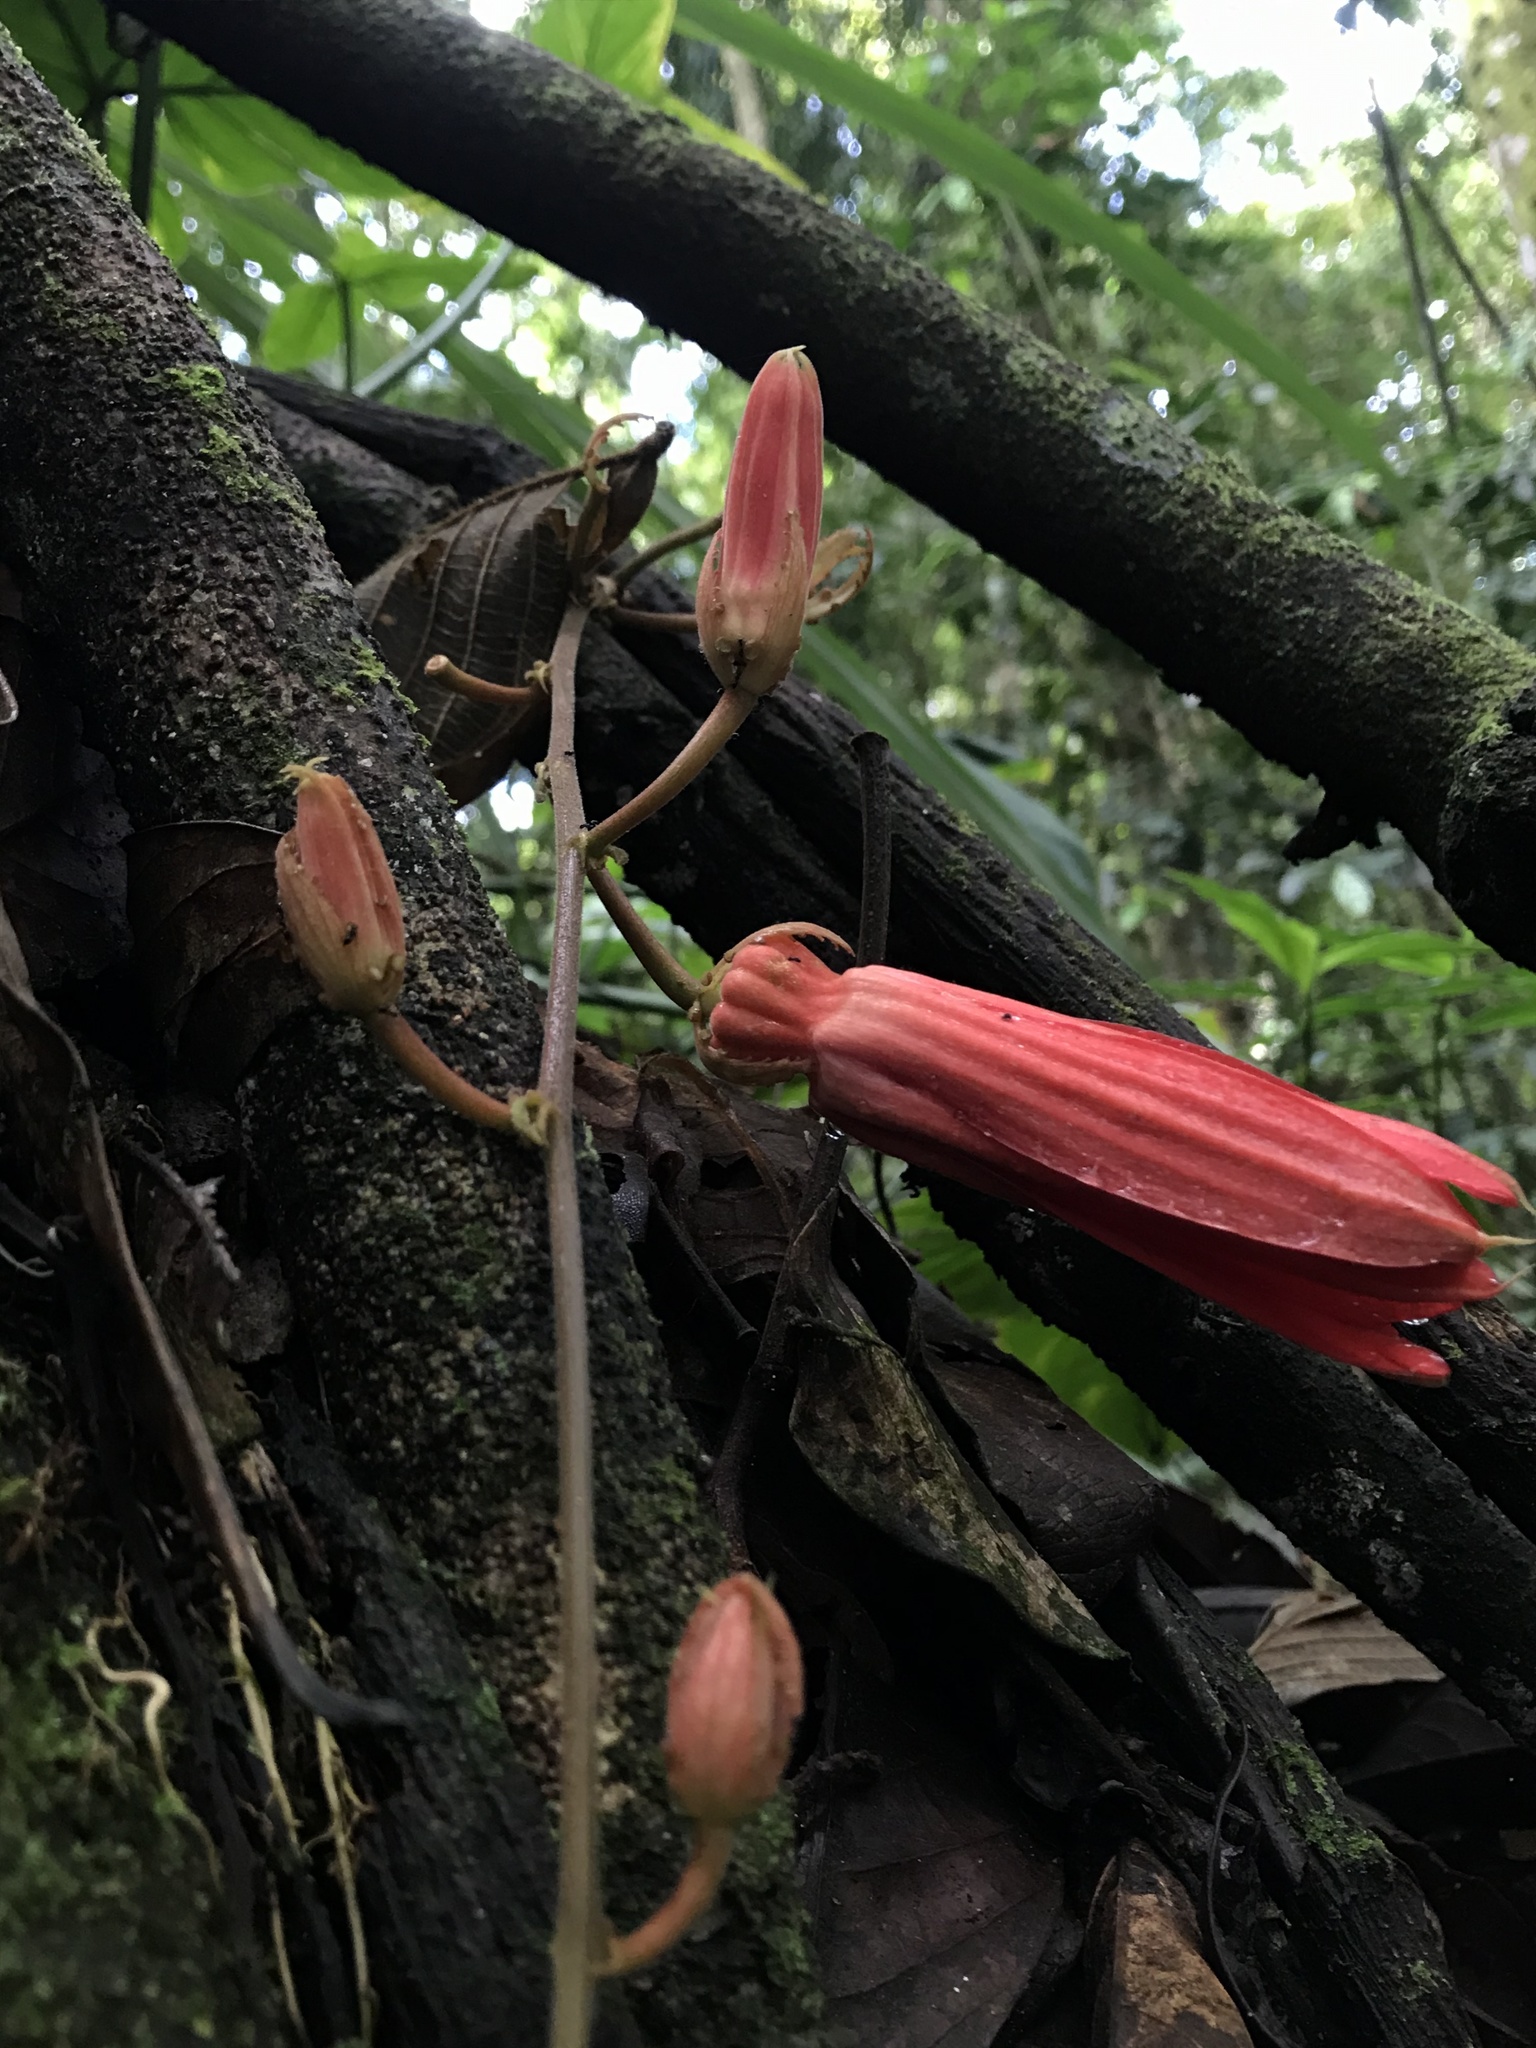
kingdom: Plantae
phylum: Tracheophyta
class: Magnoliopsida
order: Malpighiales
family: Passifloraceae
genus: Passiflora
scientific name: Passiflora vitifolia
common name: Perfumed passionflower
